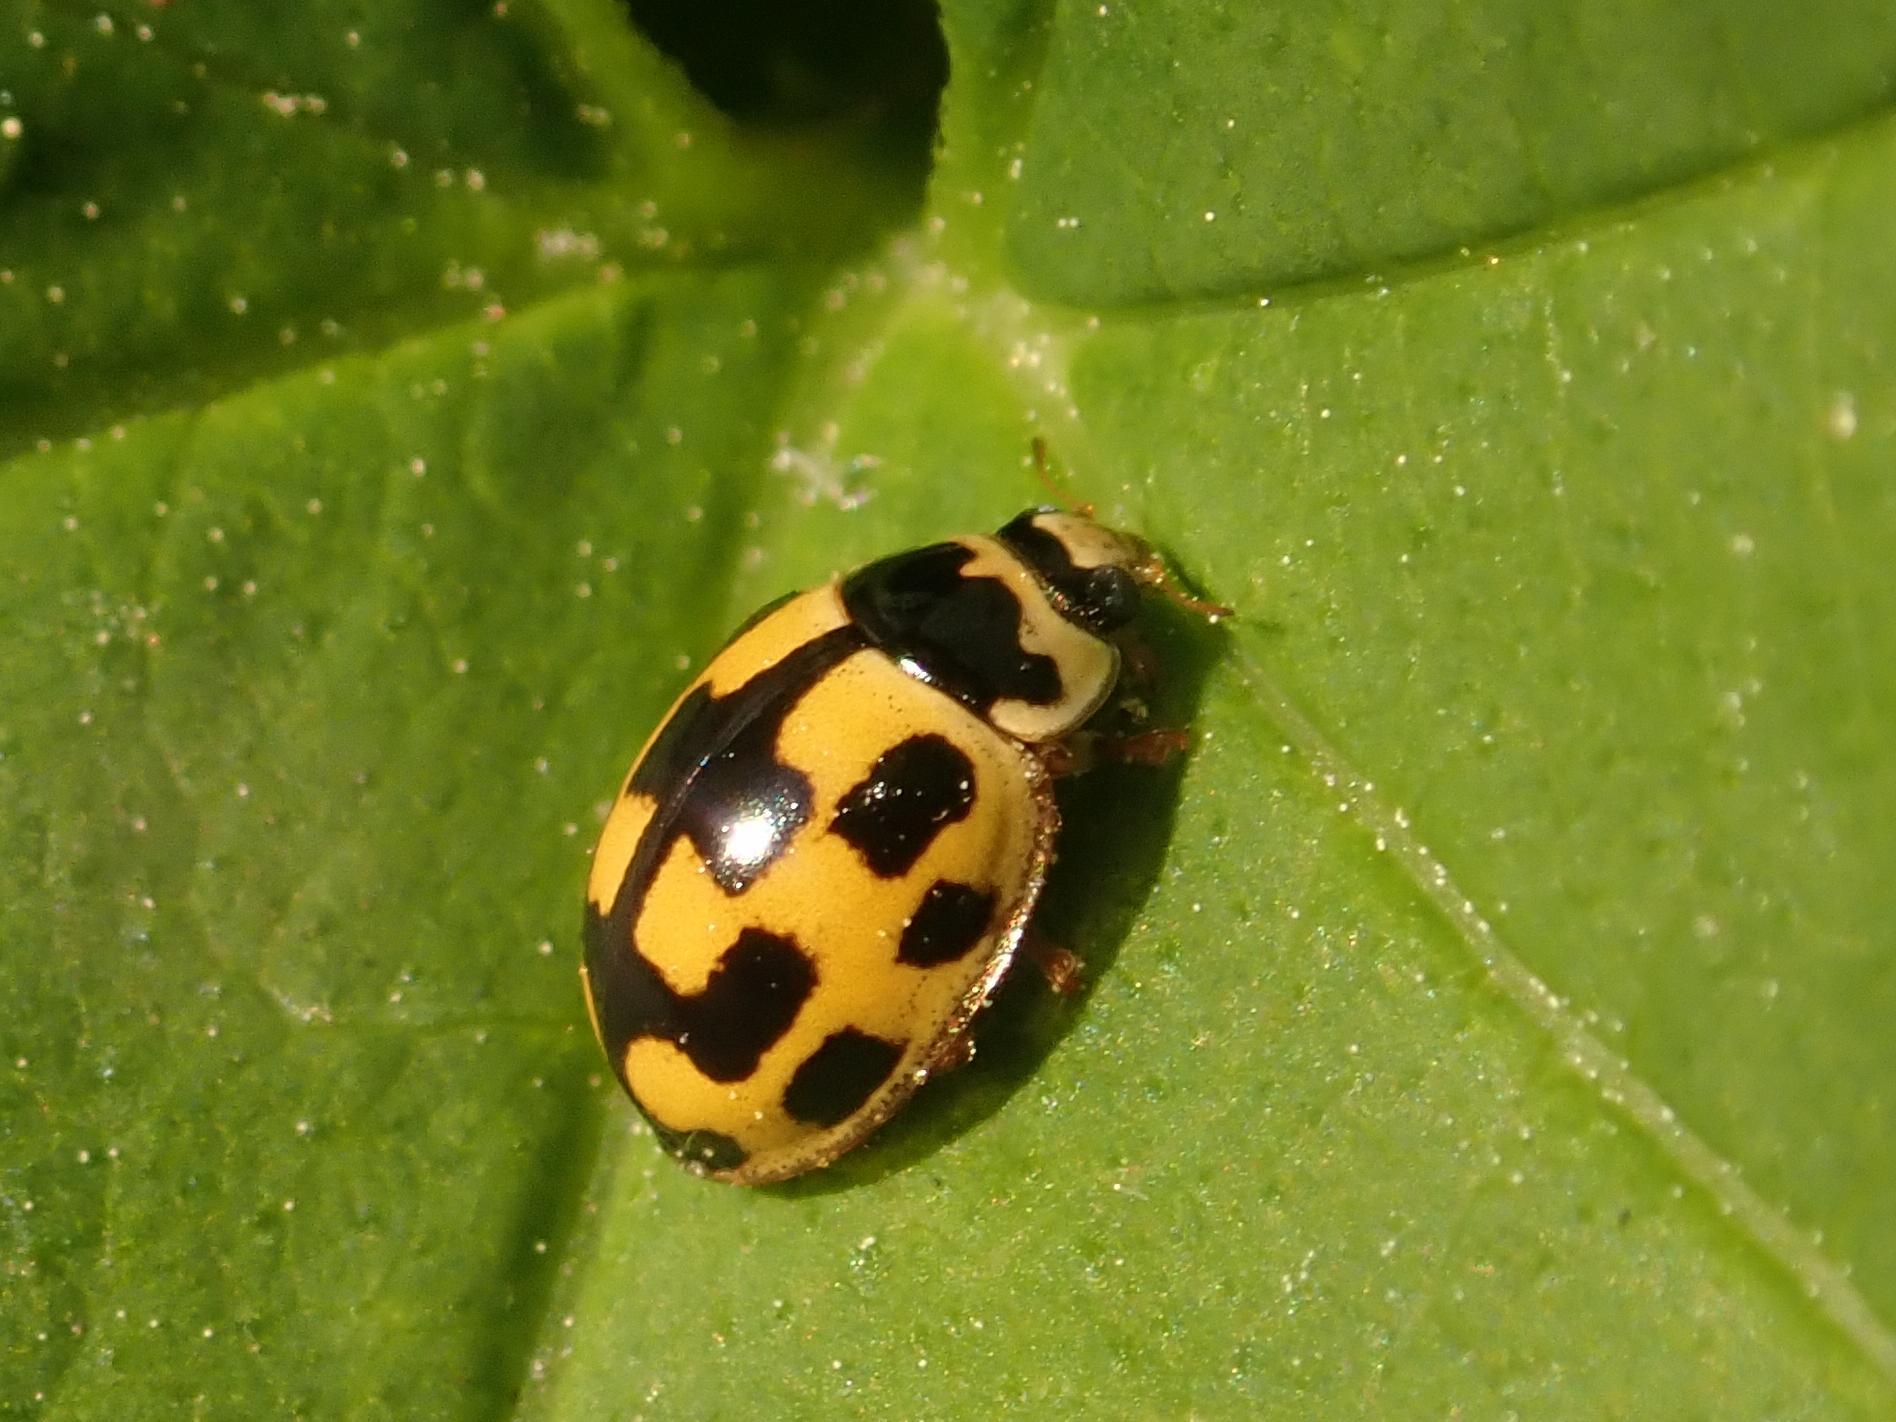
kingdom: Animalia
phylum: Arthropoda
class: Insecta
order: Coleoptera
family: Coccinellidae
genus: Propylaea
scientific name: Propylaea quatuordecimpunctata
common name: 14-spotted ladybird beetle
